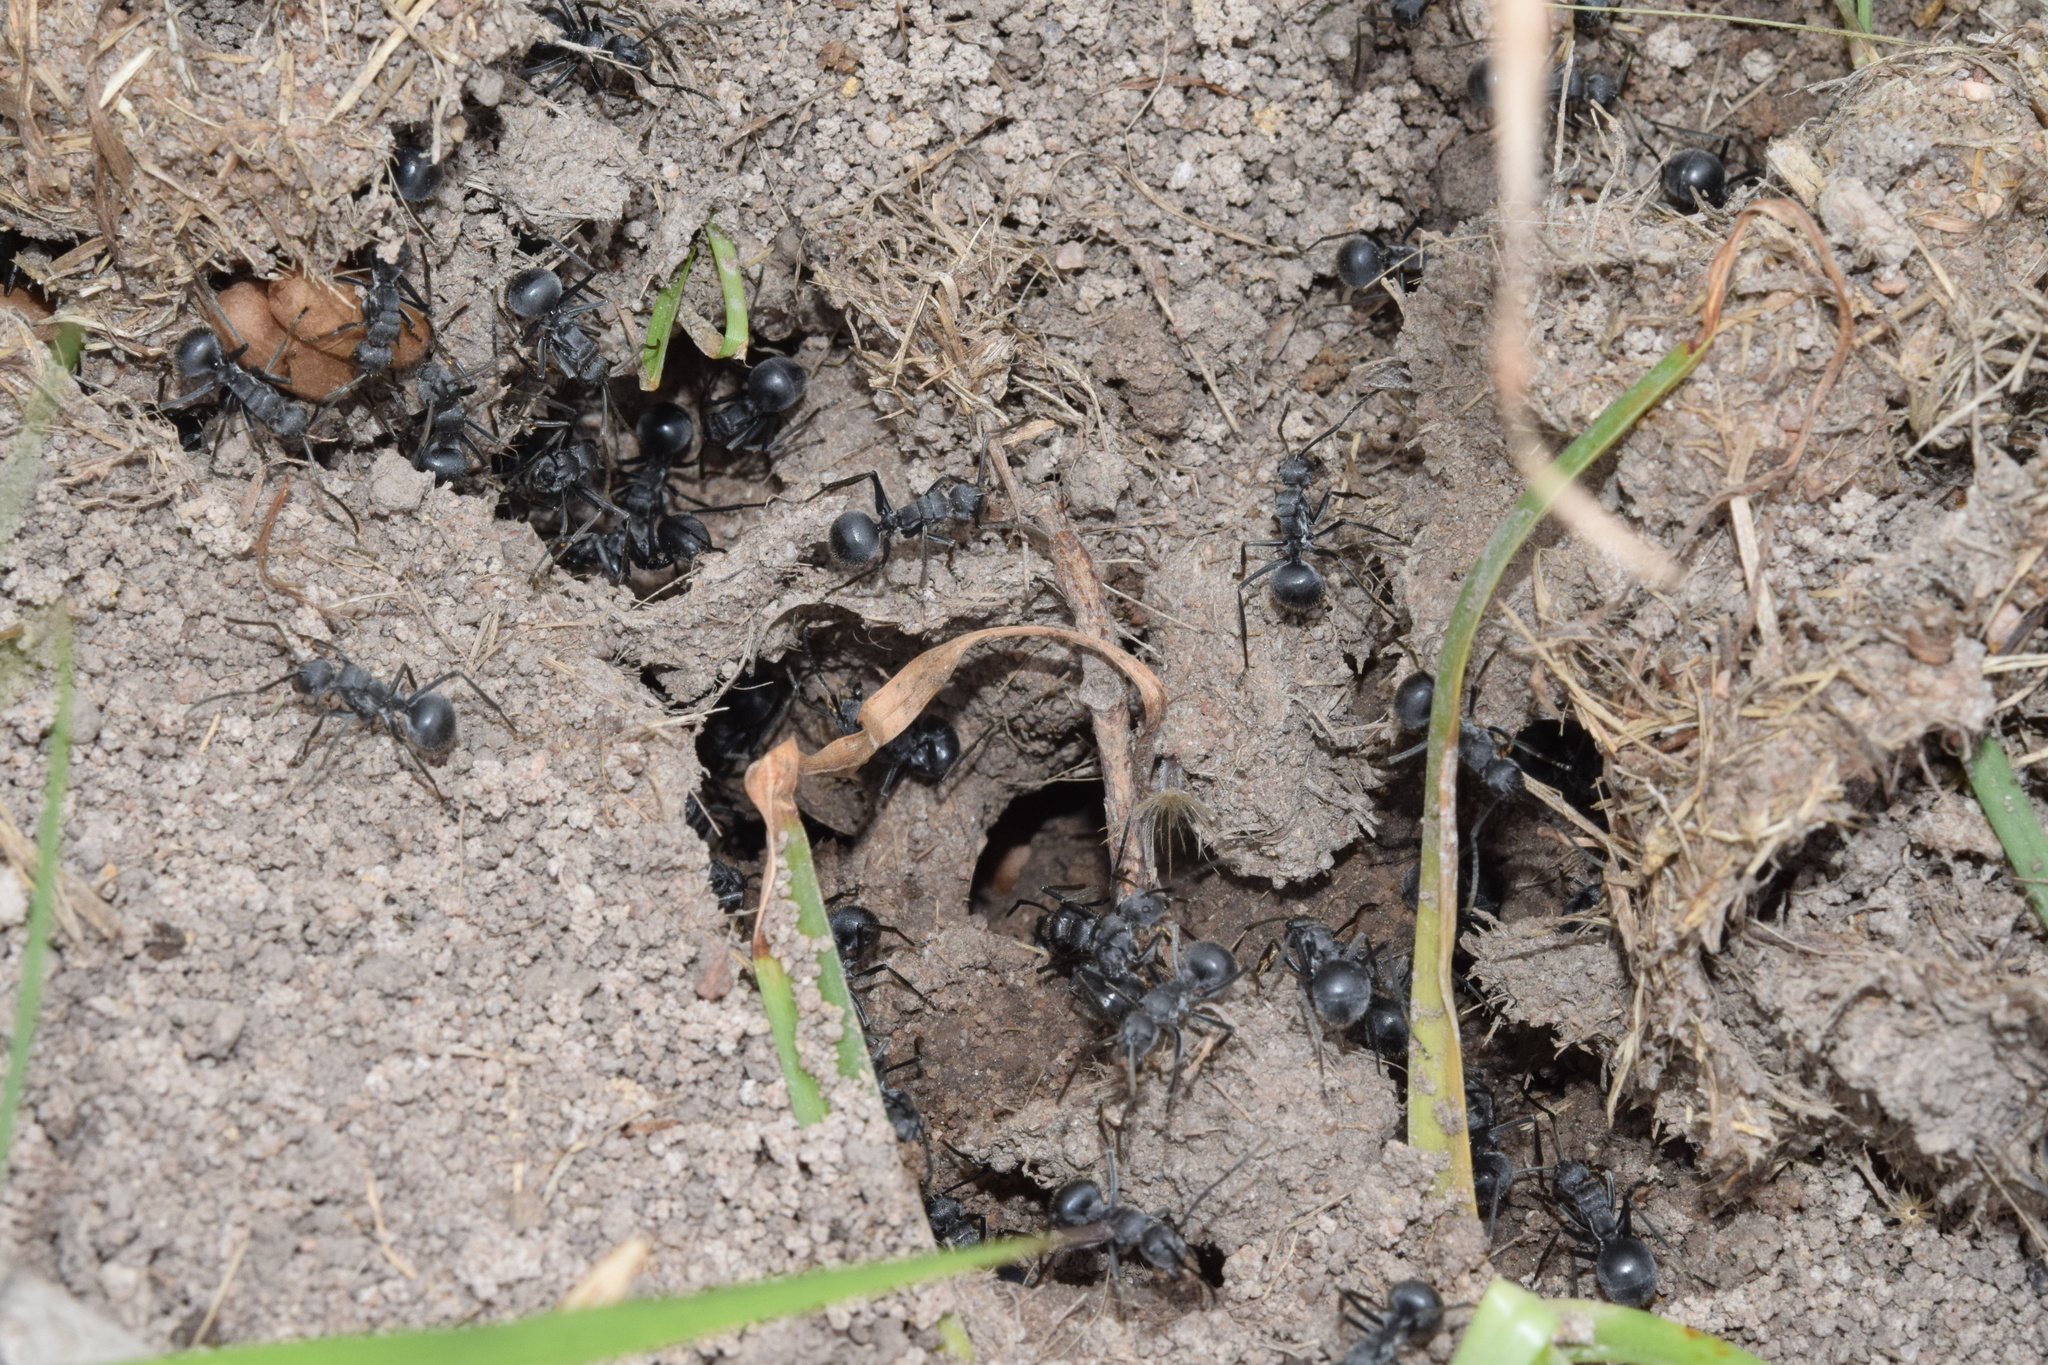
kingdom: Animalia
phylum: Arthropoda
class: Insecta
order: Hymenoptera
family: Formicidae
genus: Polyrhachis
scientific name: Polyrhachis schistacea
